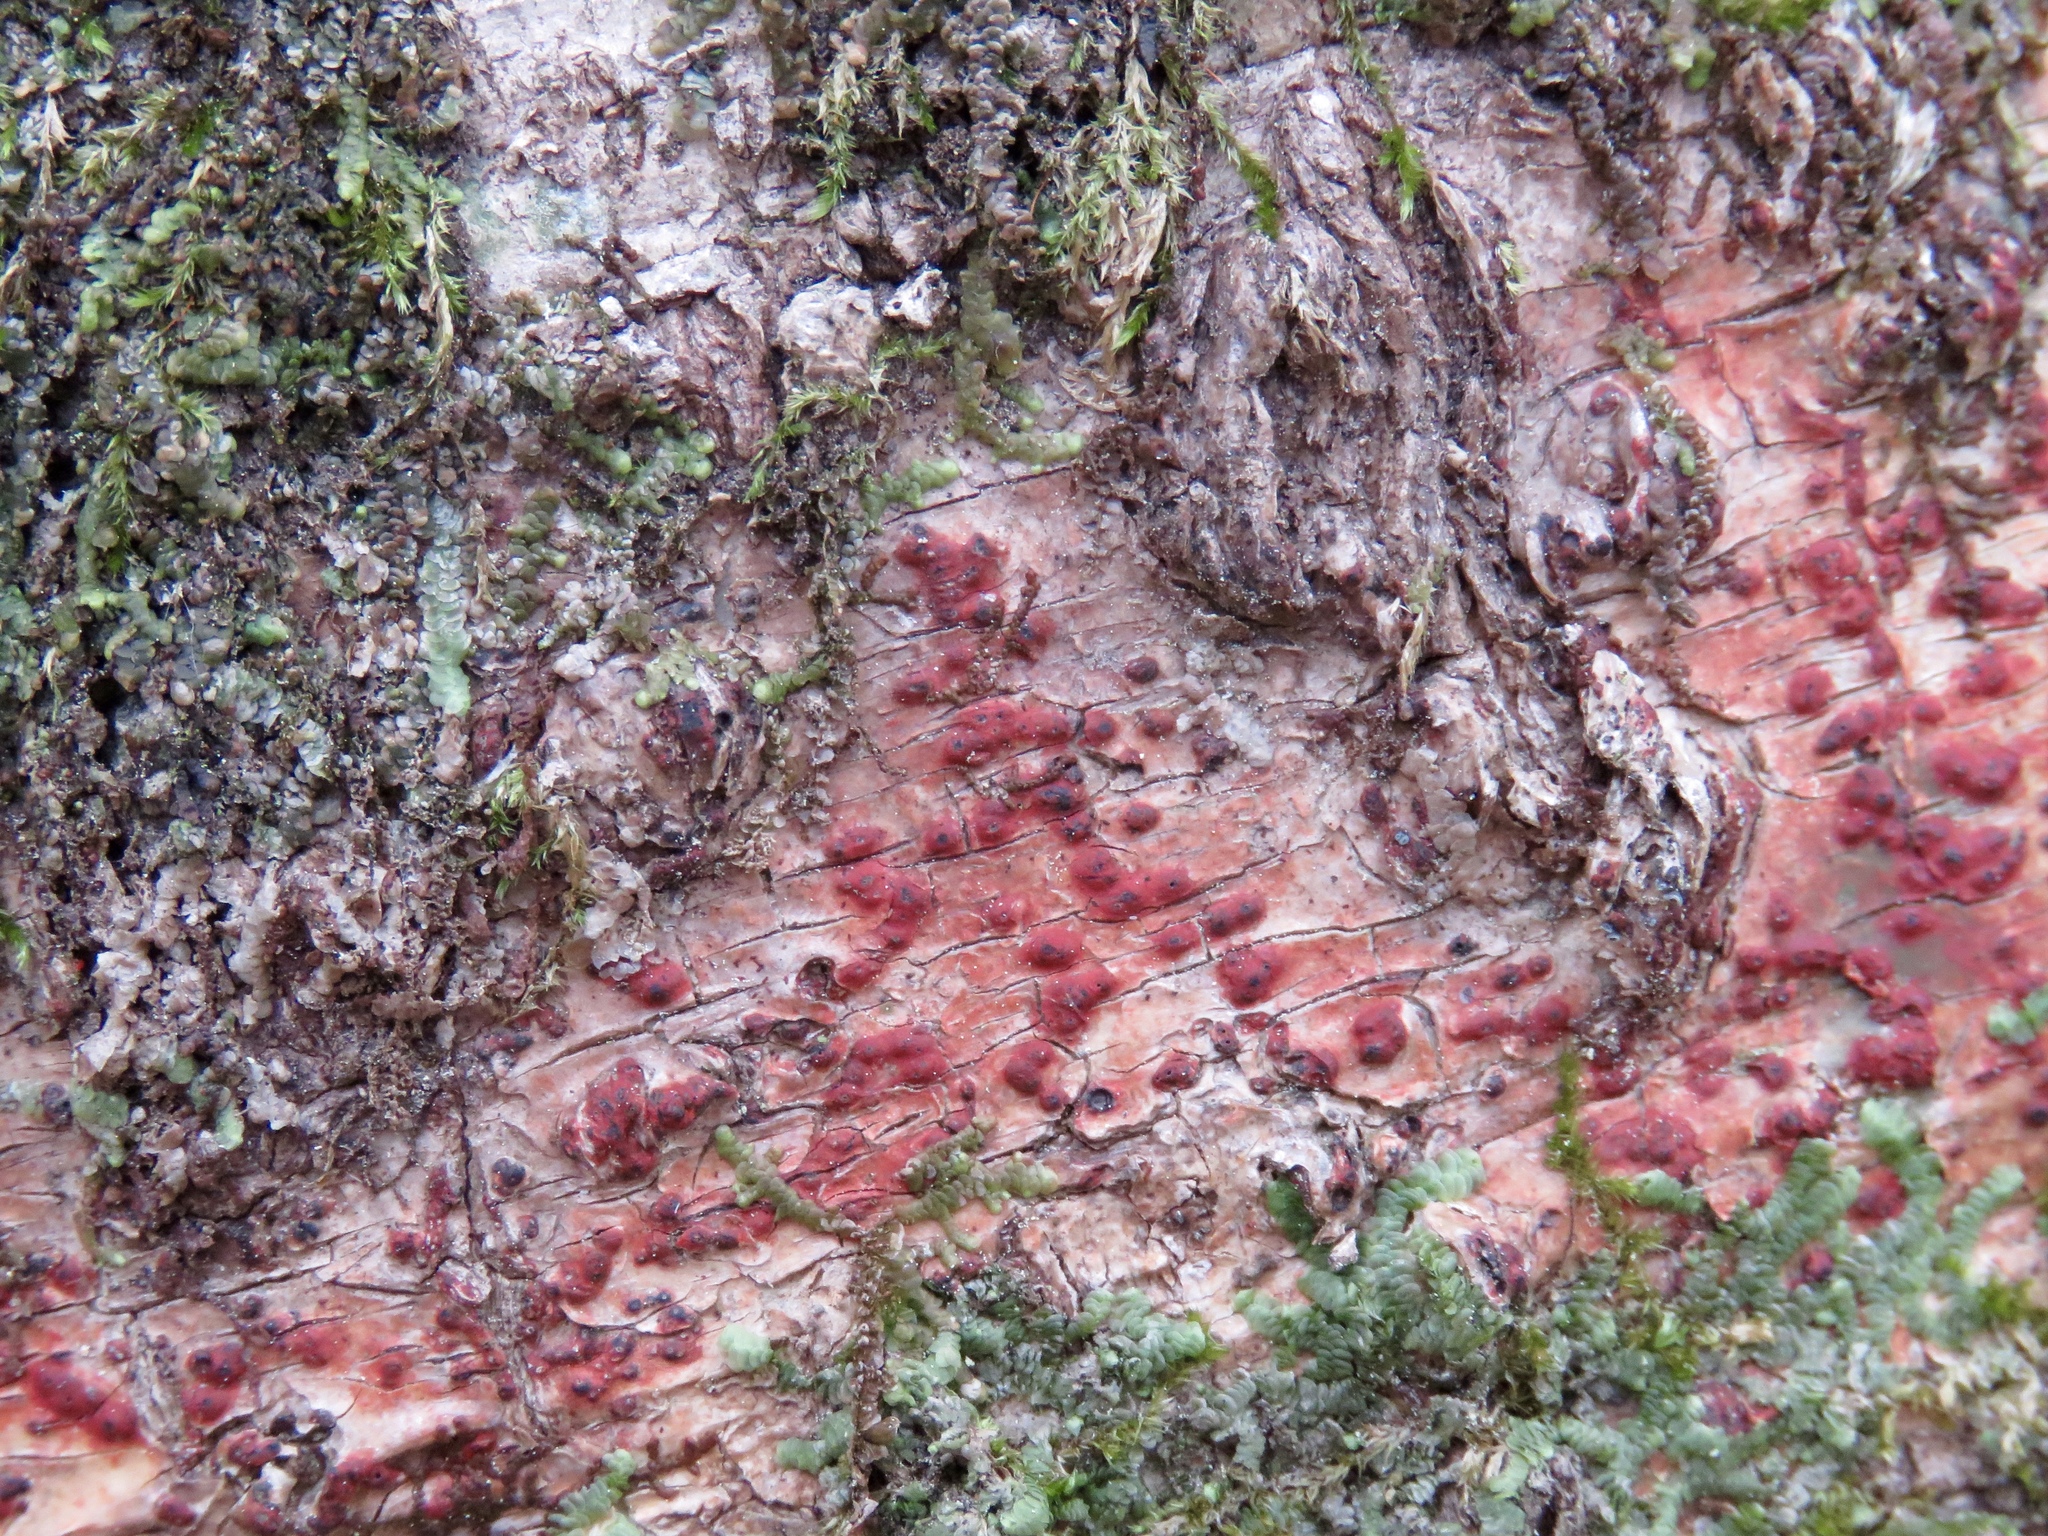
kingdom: Fungi
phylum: Ascomycota
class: Eurotiomycetes
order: Pyrenulales
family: Pyrenulaceae
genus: Pyrenula
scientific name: Pyrenula cruenta
